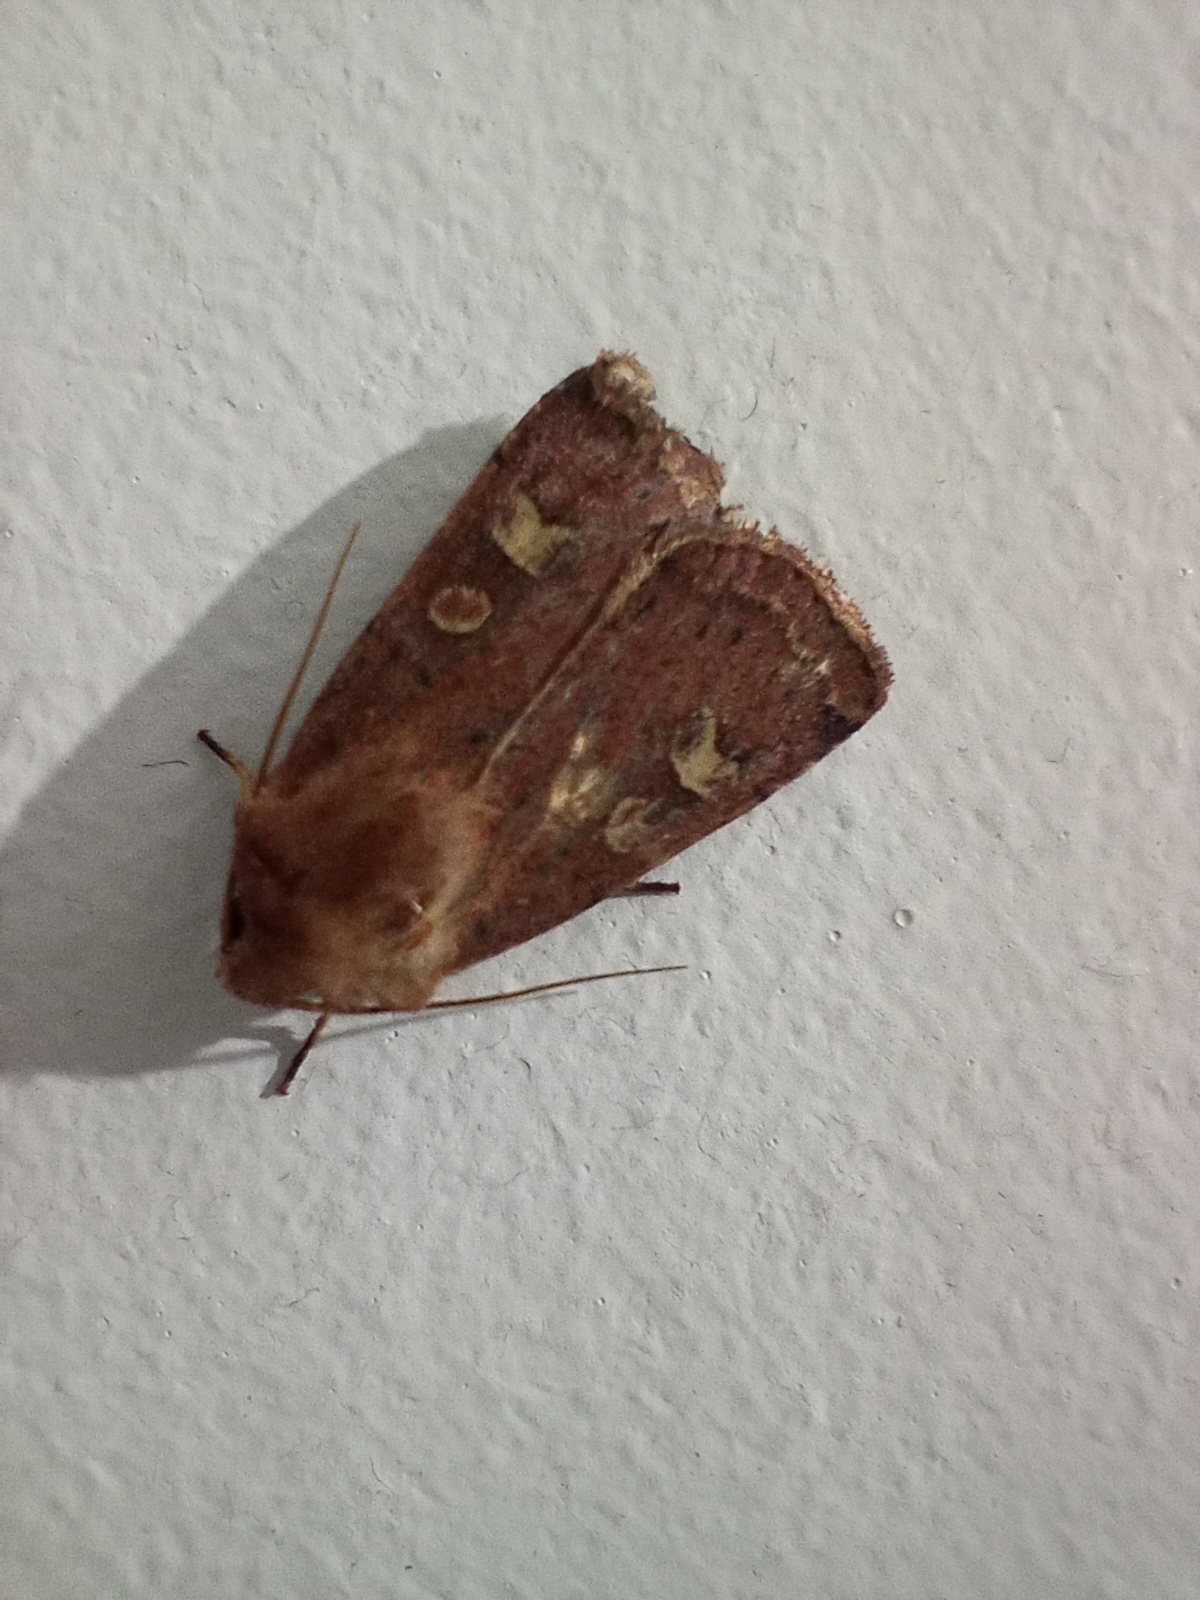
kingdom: Animalia
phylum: Arthropoda
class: Insecta
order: Lepidoptera
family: Noctuidae
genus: Xestia
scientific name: Xestia xanthographa
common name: Square-spot rustic
